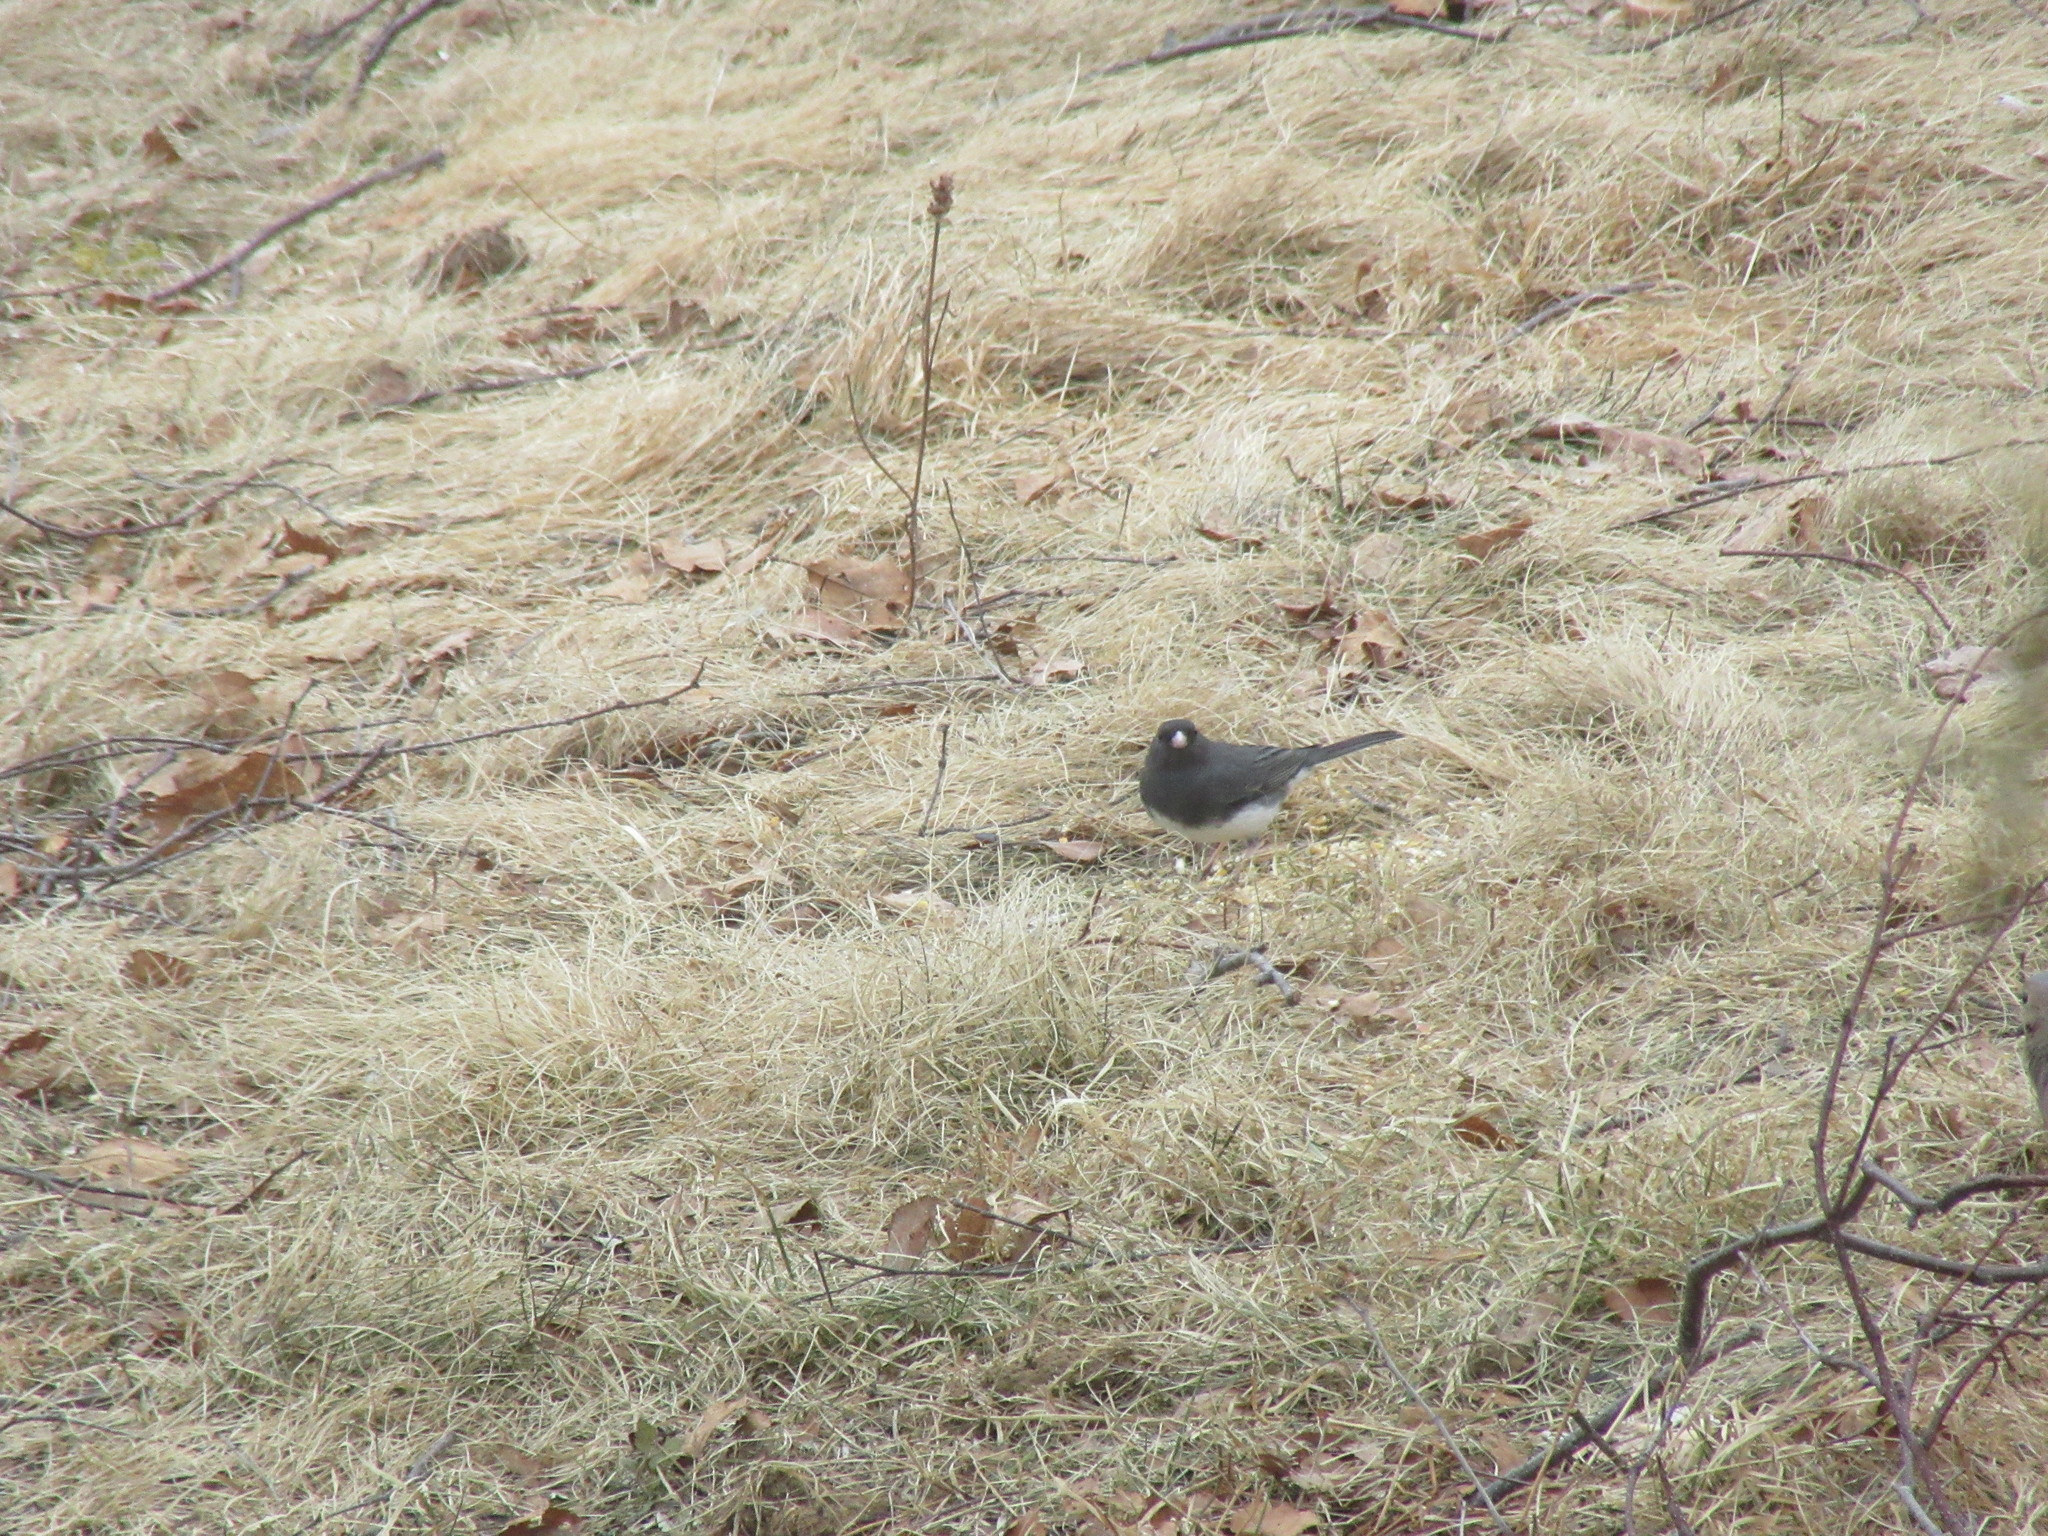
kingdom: Animalia
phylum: Chordata
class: Aves
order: Passeriformes
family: Passerellidae
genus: Junco
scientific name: Junco hyemalis
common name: Dark-eyed junco
